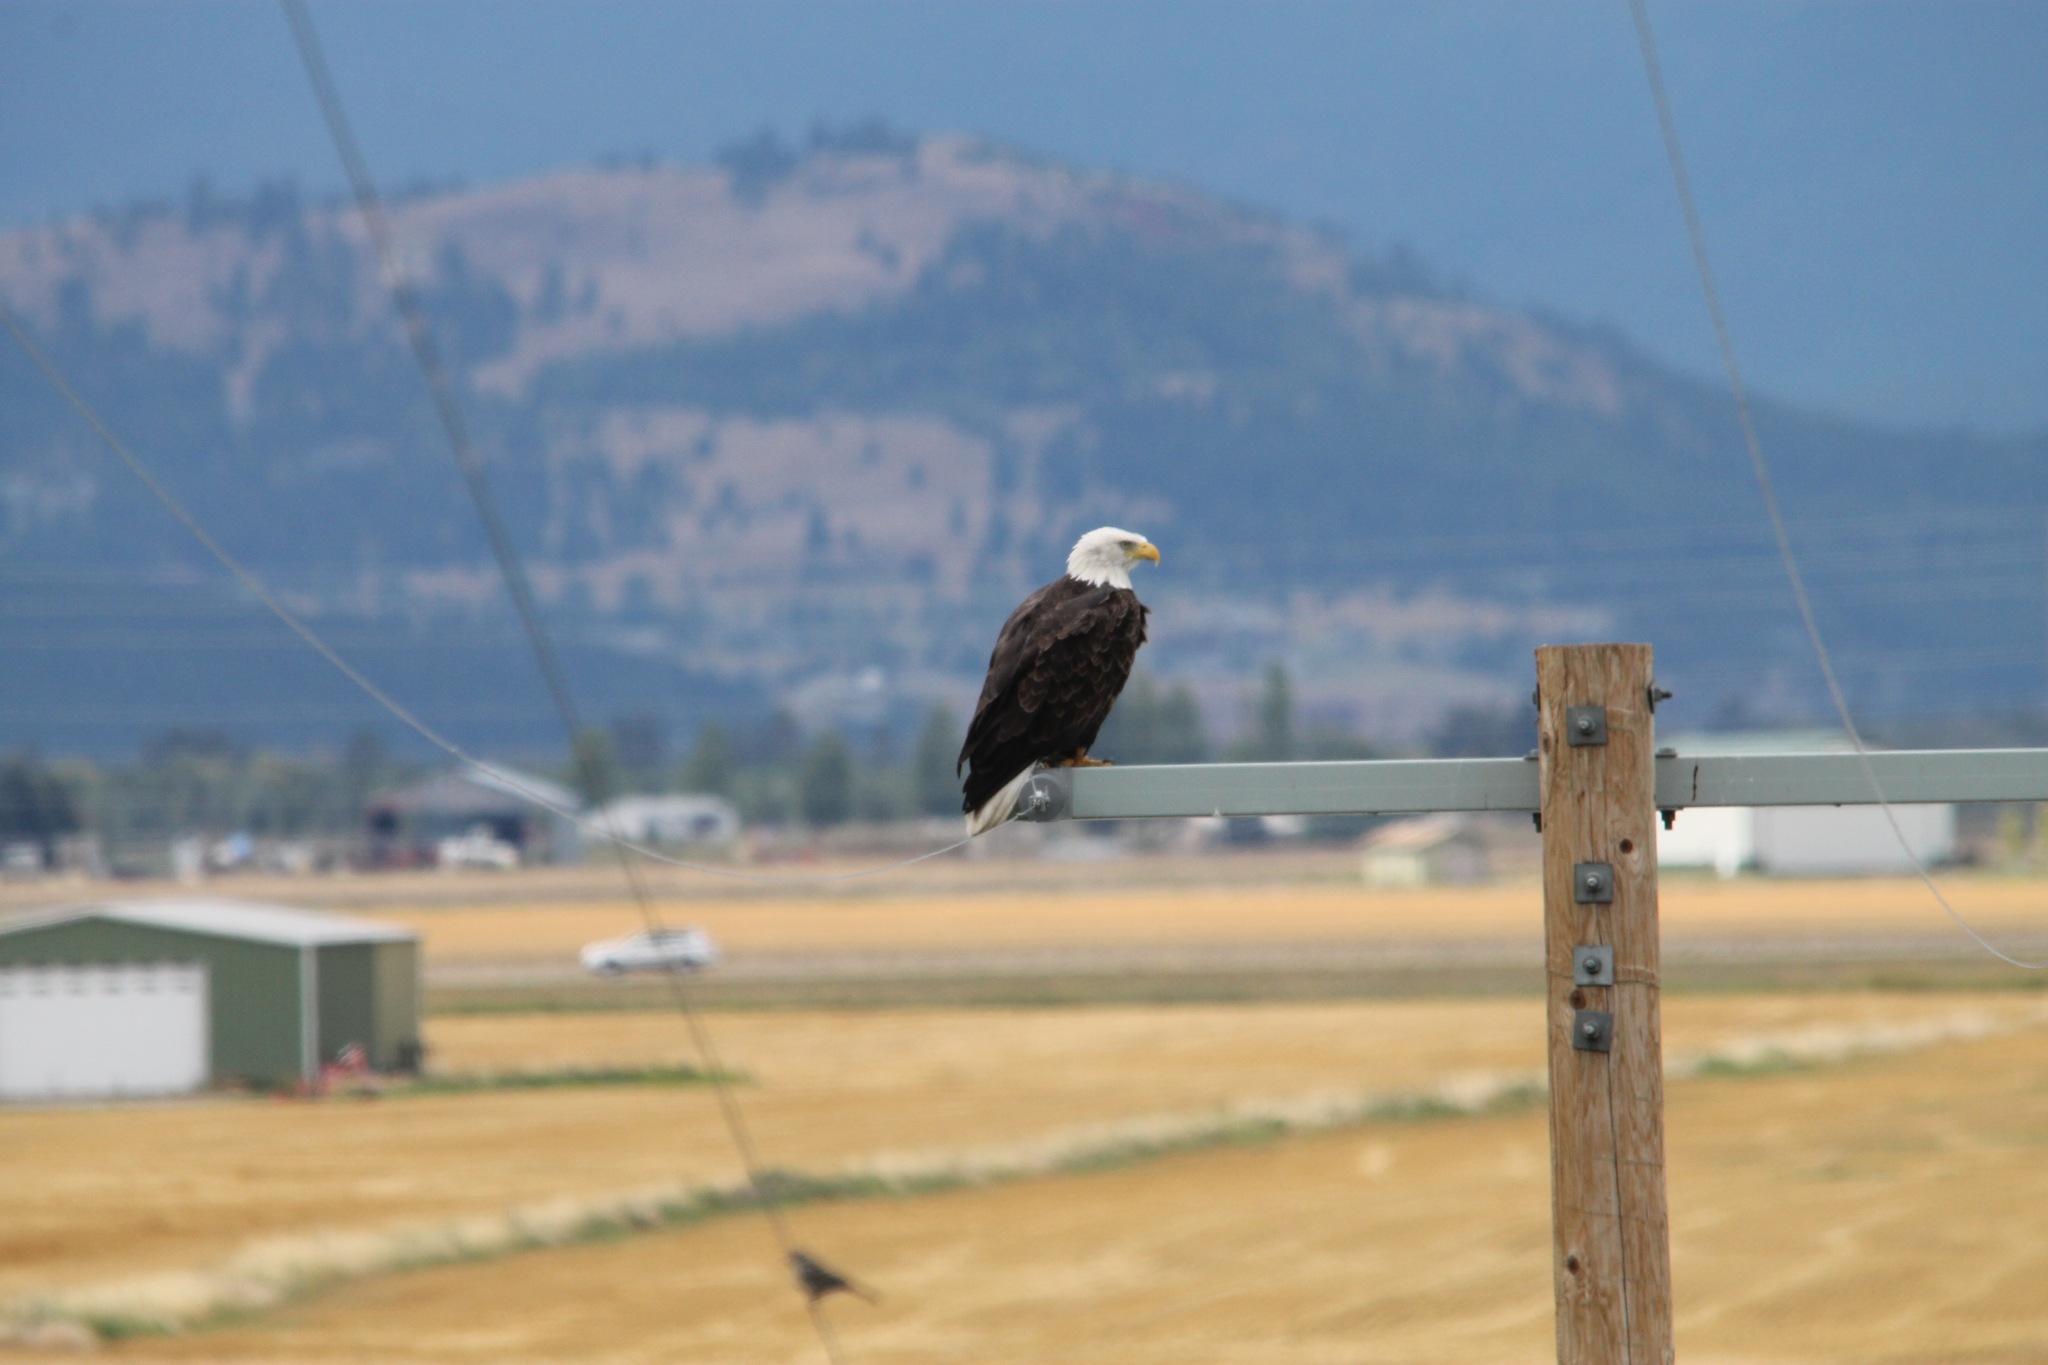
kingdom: Animalia
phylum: Chordata
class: Aves
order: Accipitriformes
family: Accipitridae
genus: Haliaeetus
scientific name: Haliaeetus leucocephalus
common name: Bald eagle
